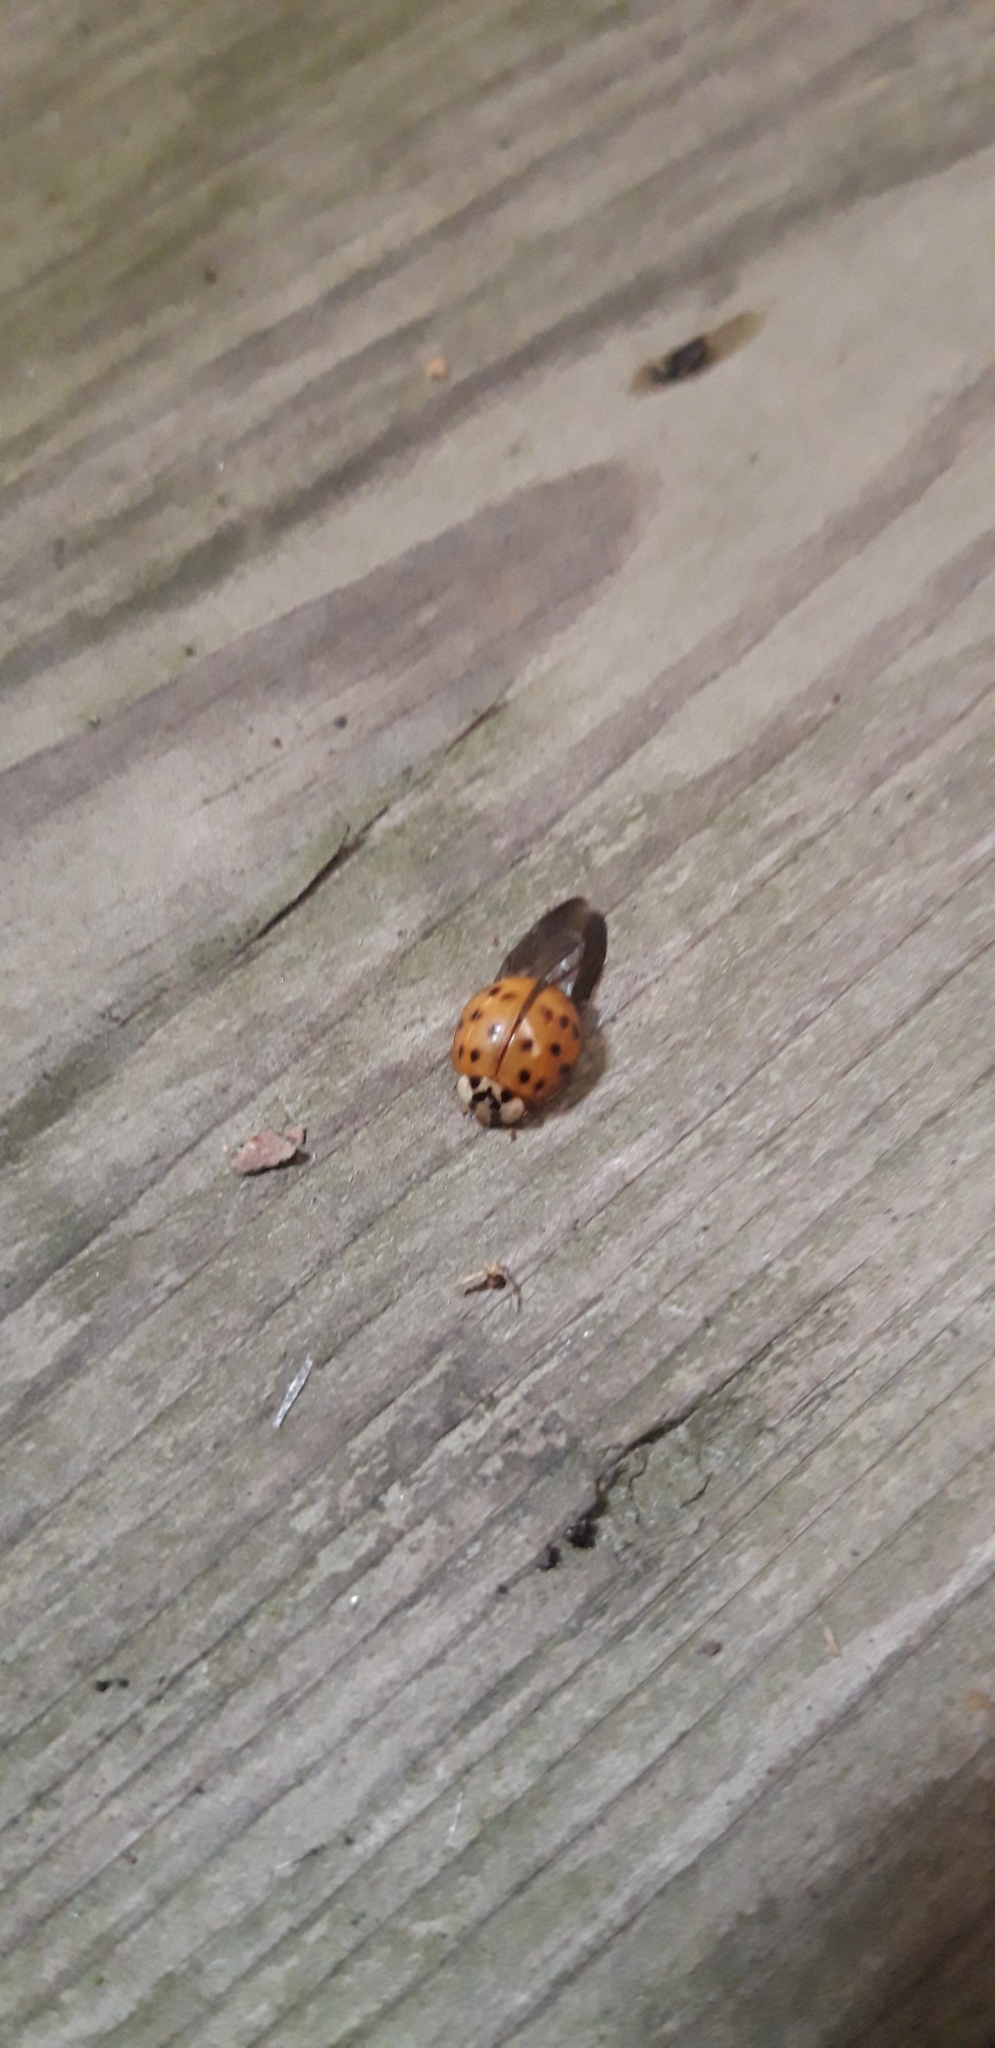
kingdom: Animalia
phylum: Arthropoda
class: Insecta
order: Coleoptera
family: Coccinellidae
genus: Harmonia
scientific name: Harmonia axyridis
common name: Harlequin ladybird
